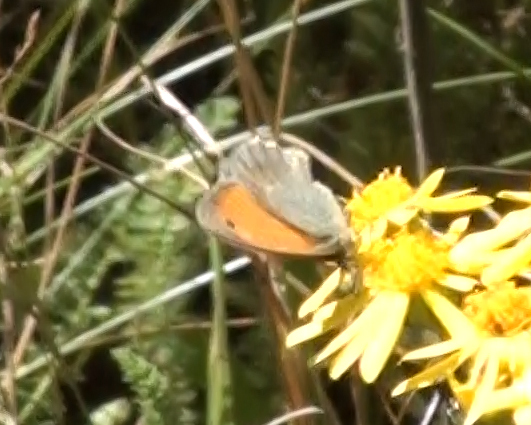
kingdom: Animalia
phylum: Arthropoda
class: Insecta
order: Lepidoptera
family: Nymphalidae
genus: Coenonympha
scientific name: Coenonympha pamphilus
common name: Small heath
